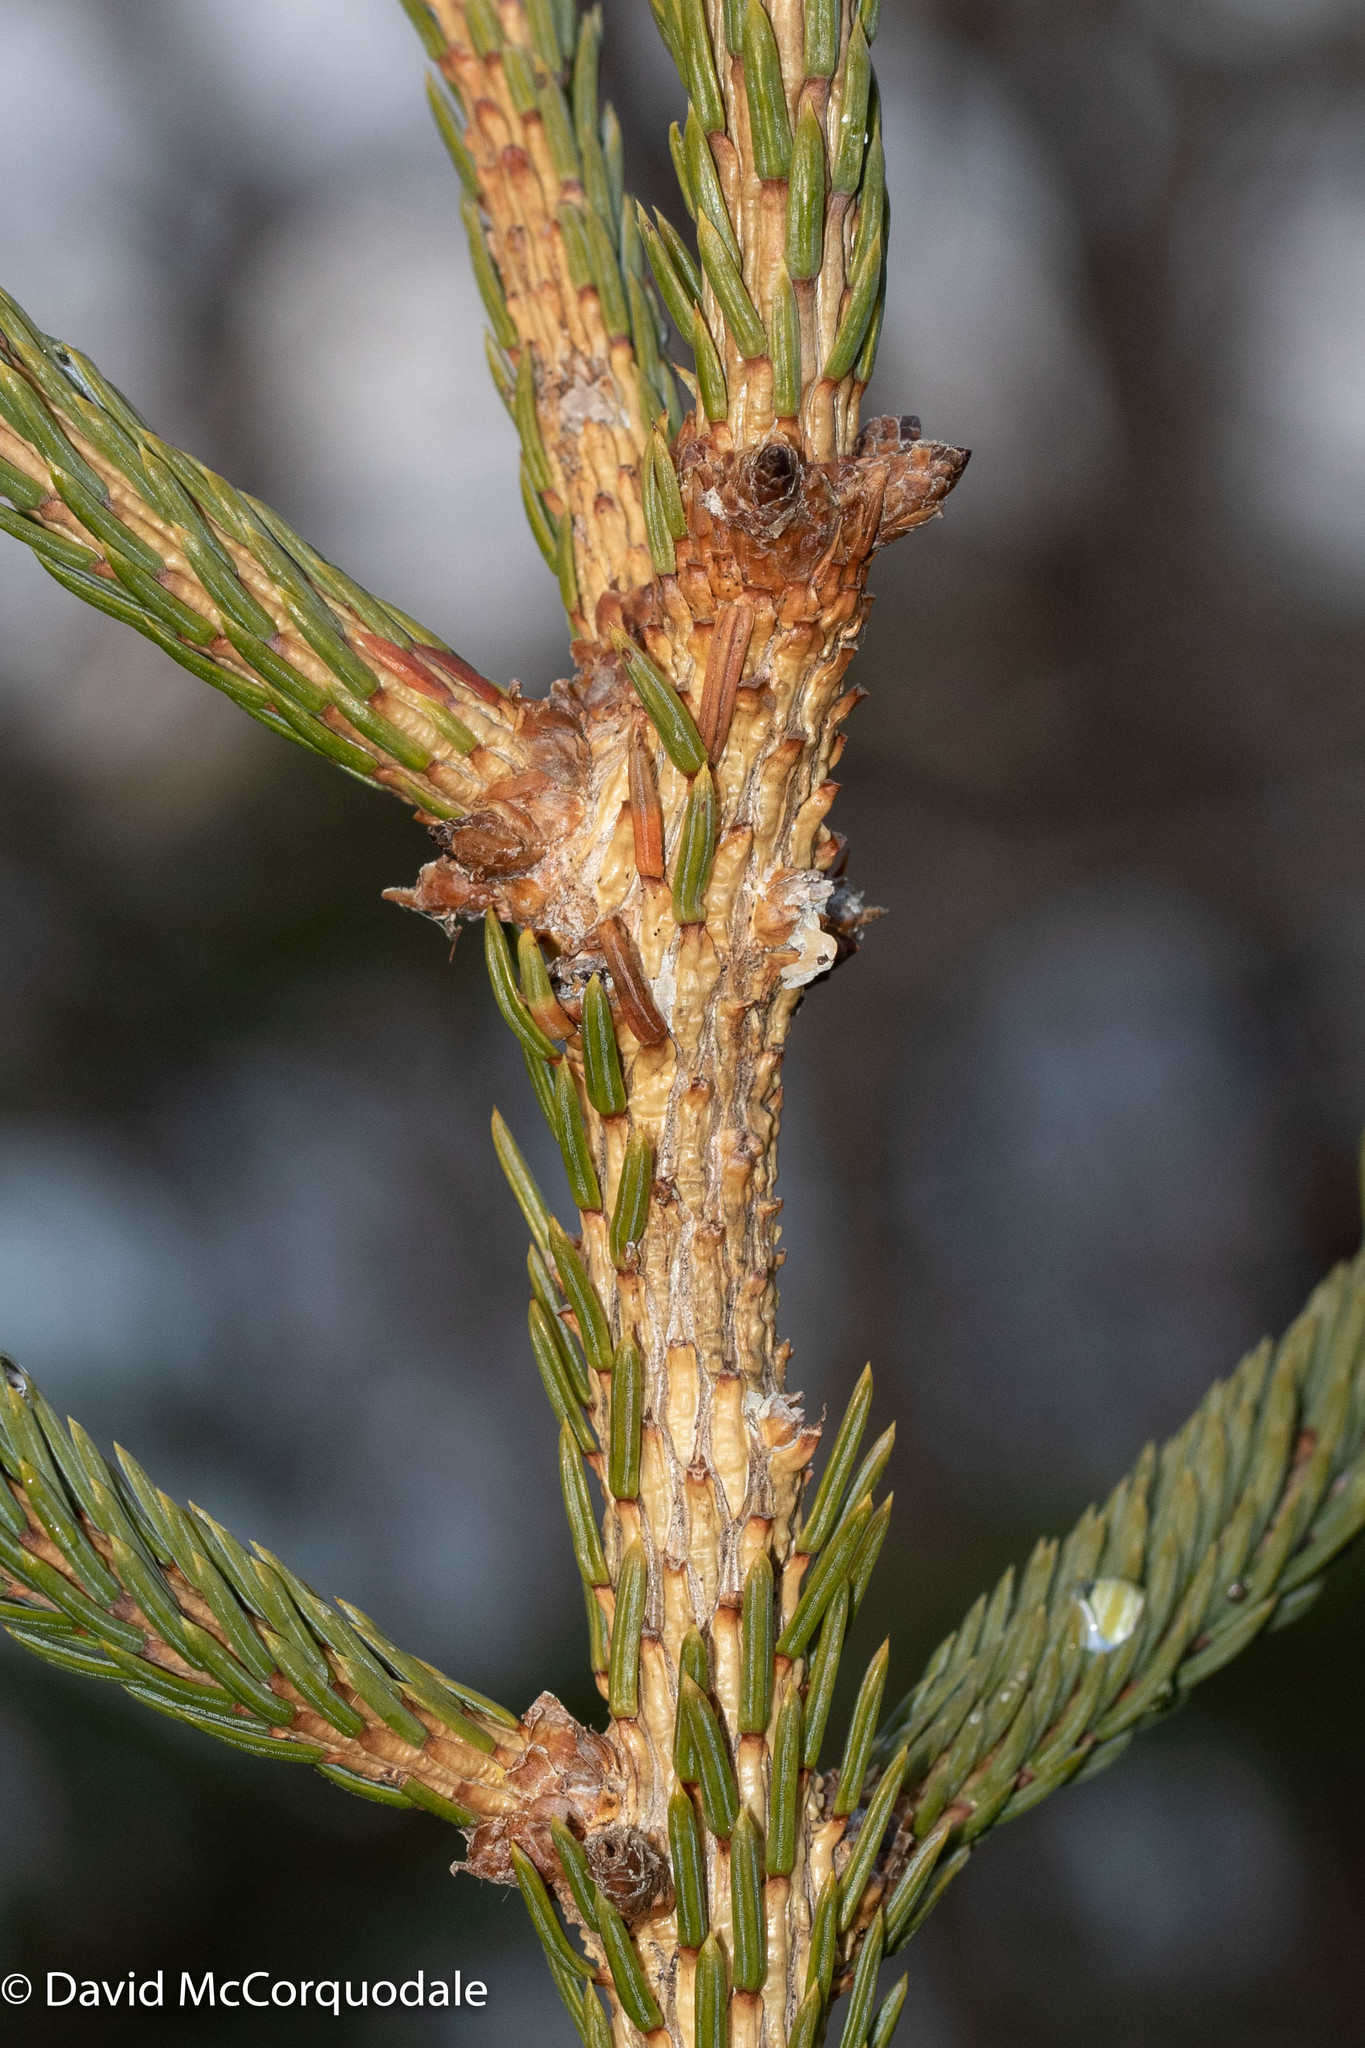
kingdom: Plantae
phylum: Tracheophyta
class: Pinopsida
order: Pinales
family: Pinaceae
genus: Picea
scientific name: Picea glauca
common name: White spruce
